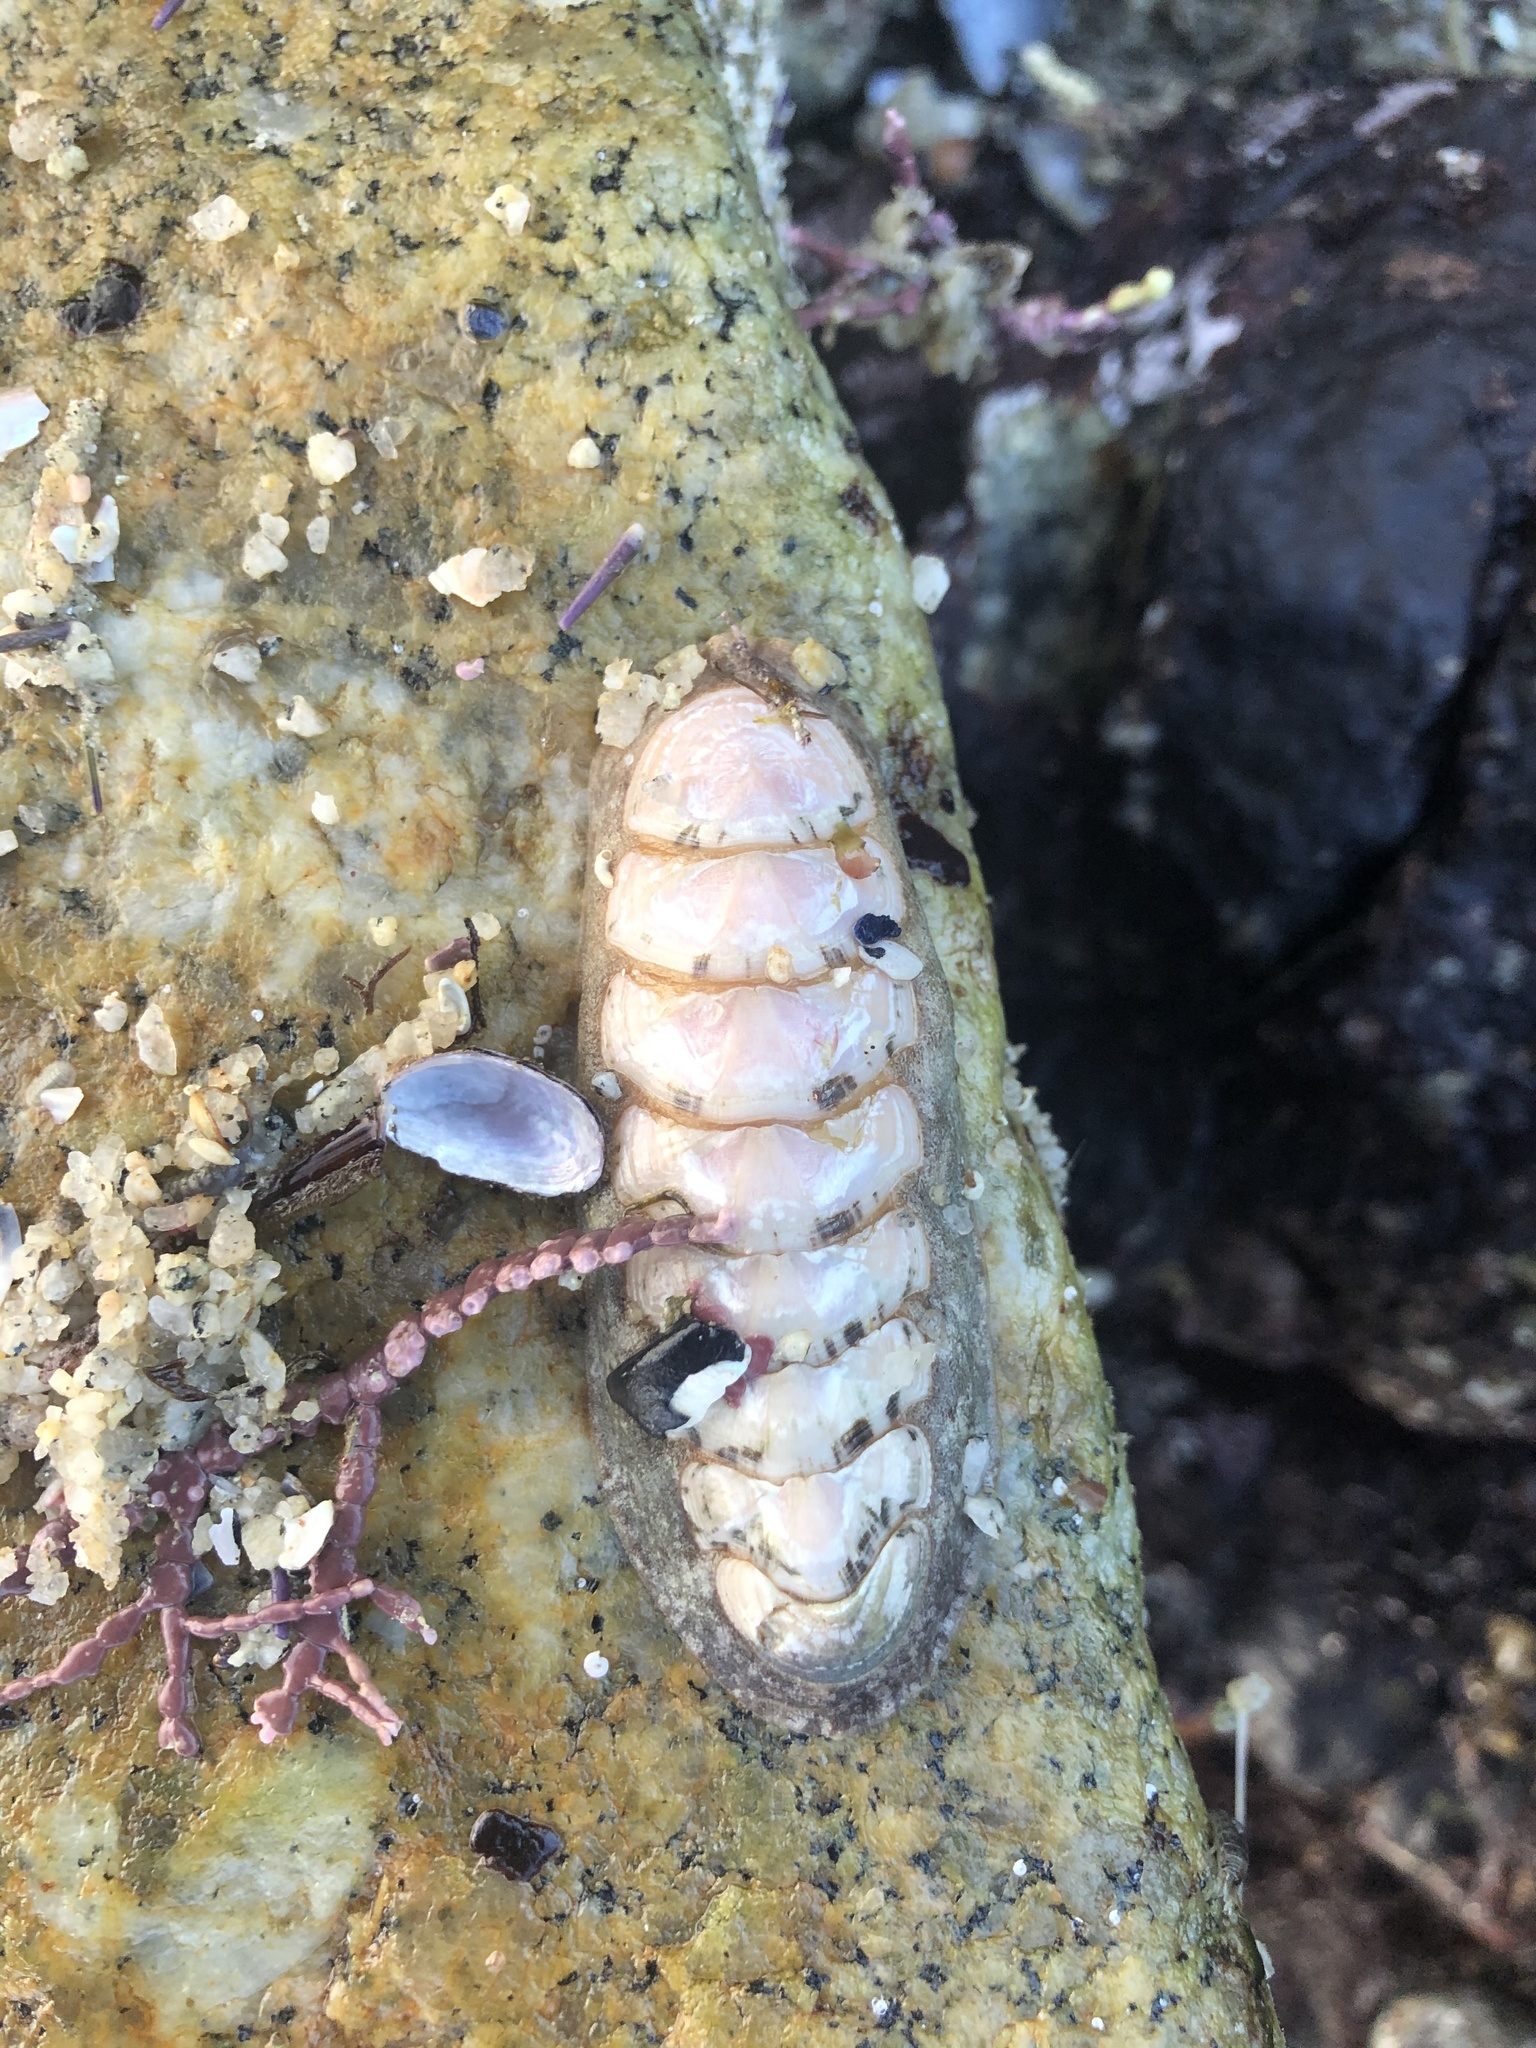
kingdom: Animalia
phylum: Mollusca
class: Polyplacophora
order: Chitonida
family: Ischnochitonidae
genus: Stenoplax
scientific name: Stenoplax heathiana
